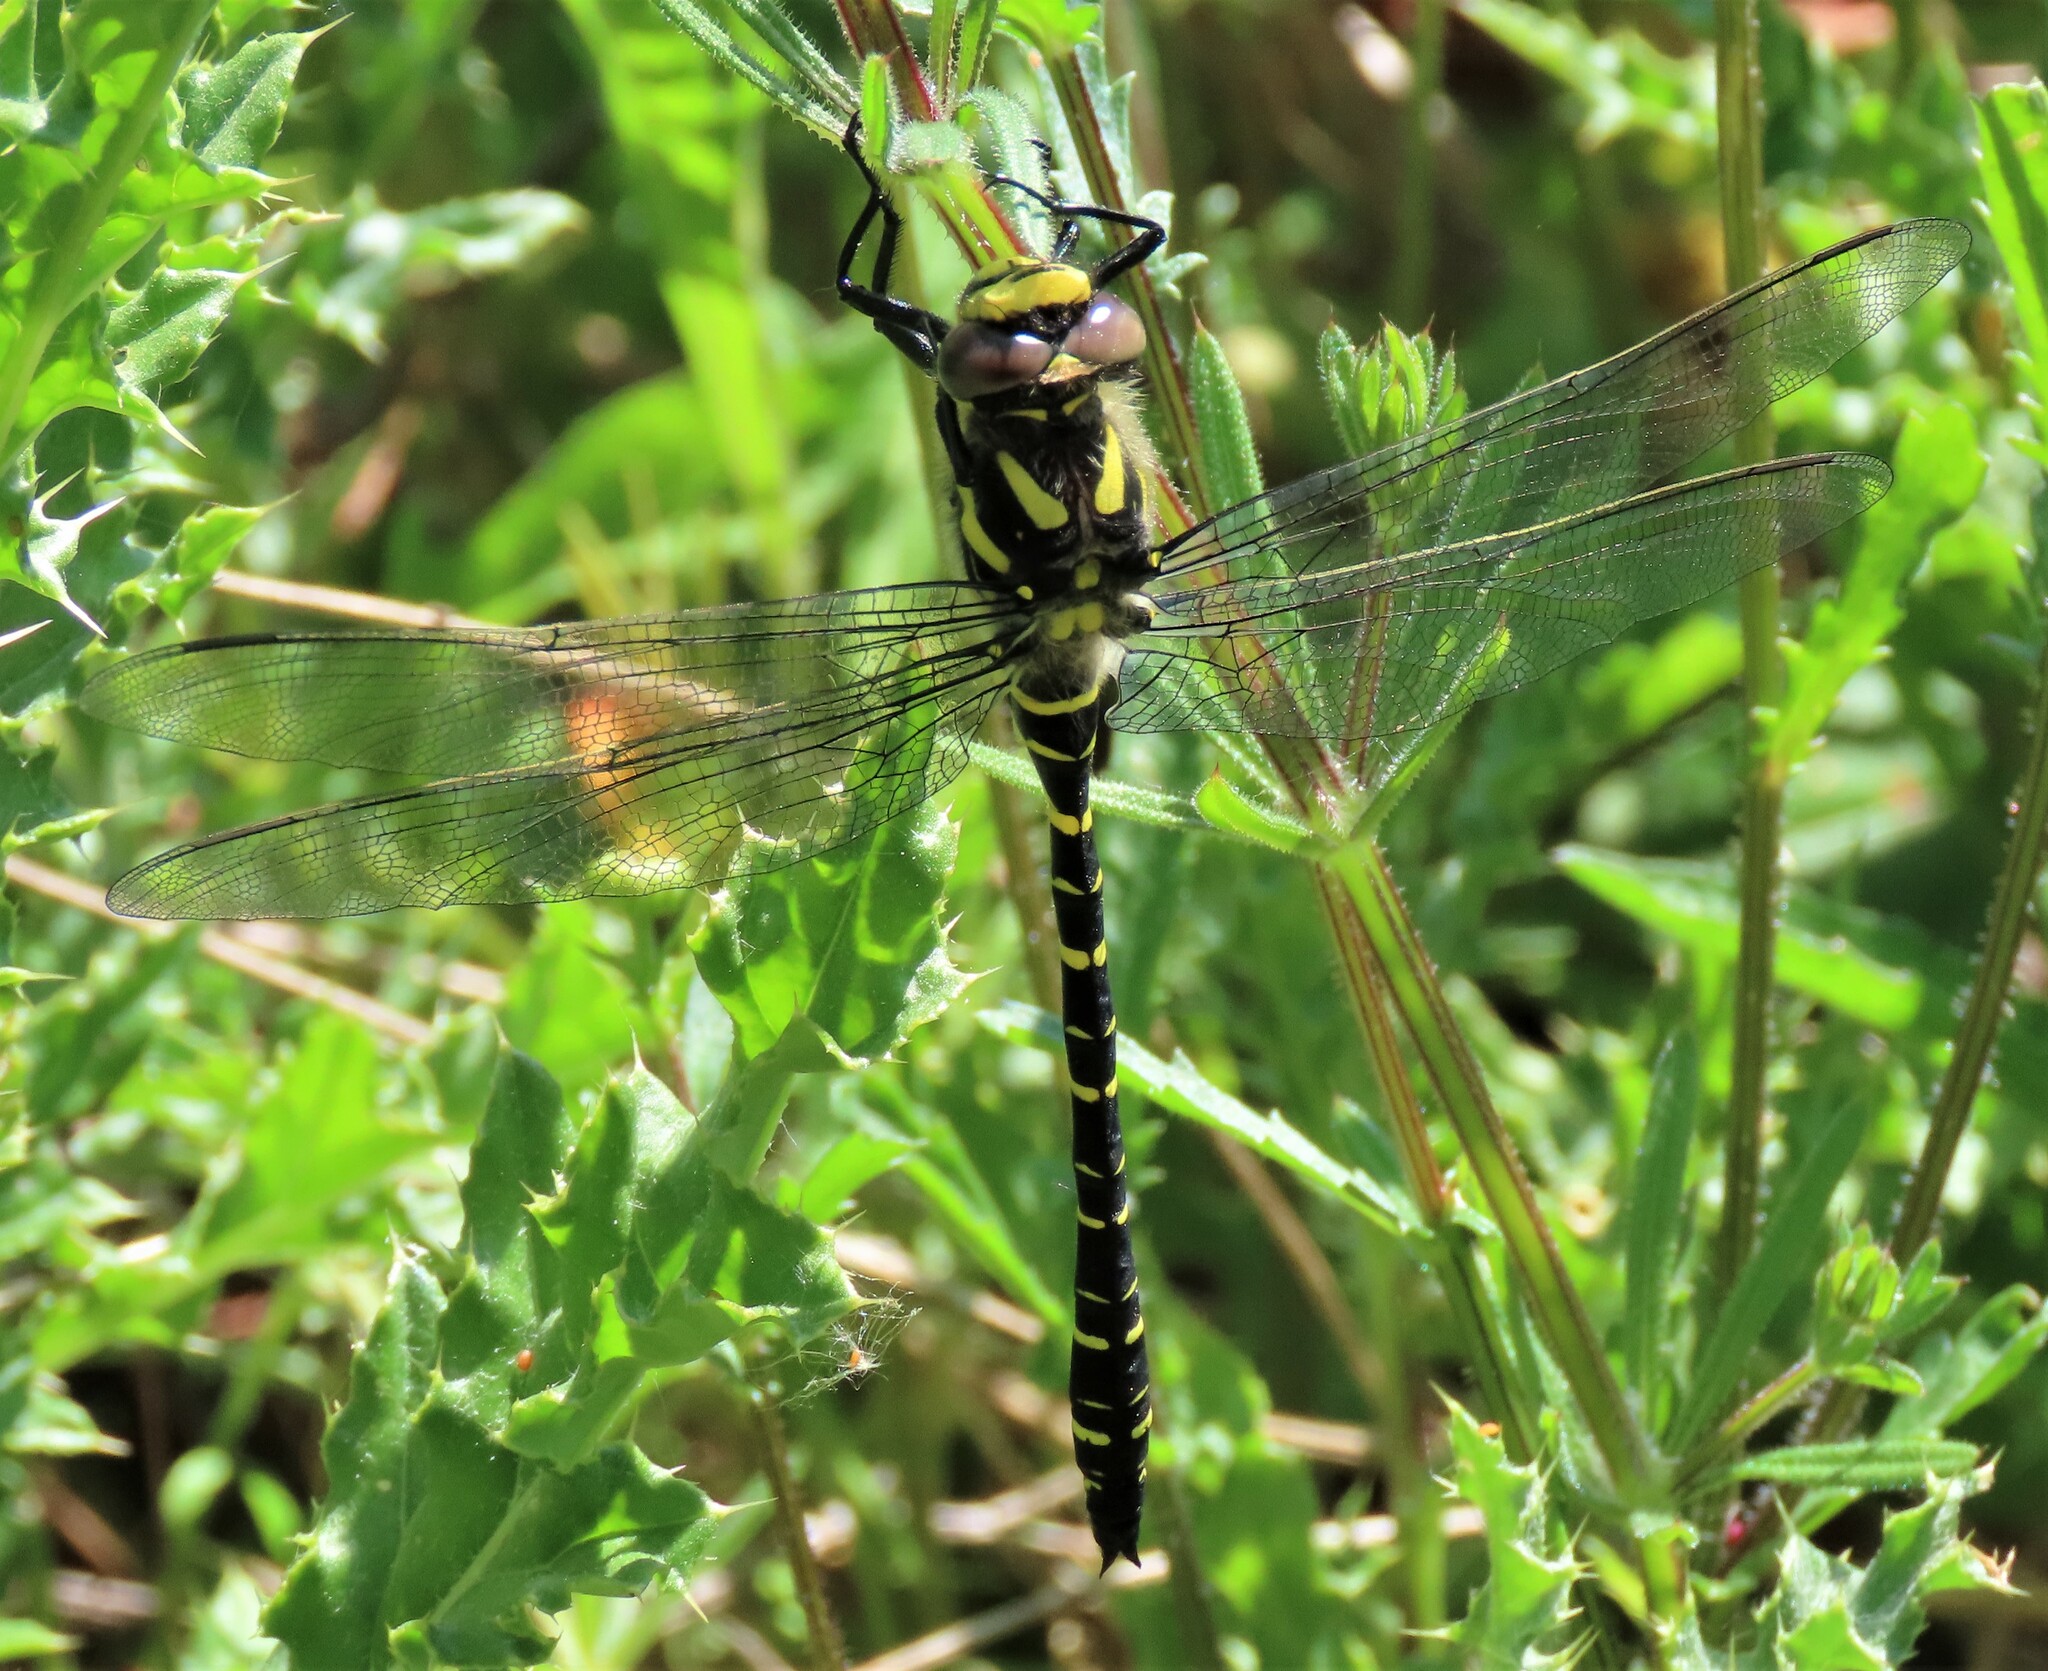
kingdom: Animalia
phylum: Arthropoda
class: Insecta
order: Odonata
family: Cordulegastridae
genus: Cordulegaster
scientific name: Cordulegaster boltonii
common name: Golden-ringed dragonfly
